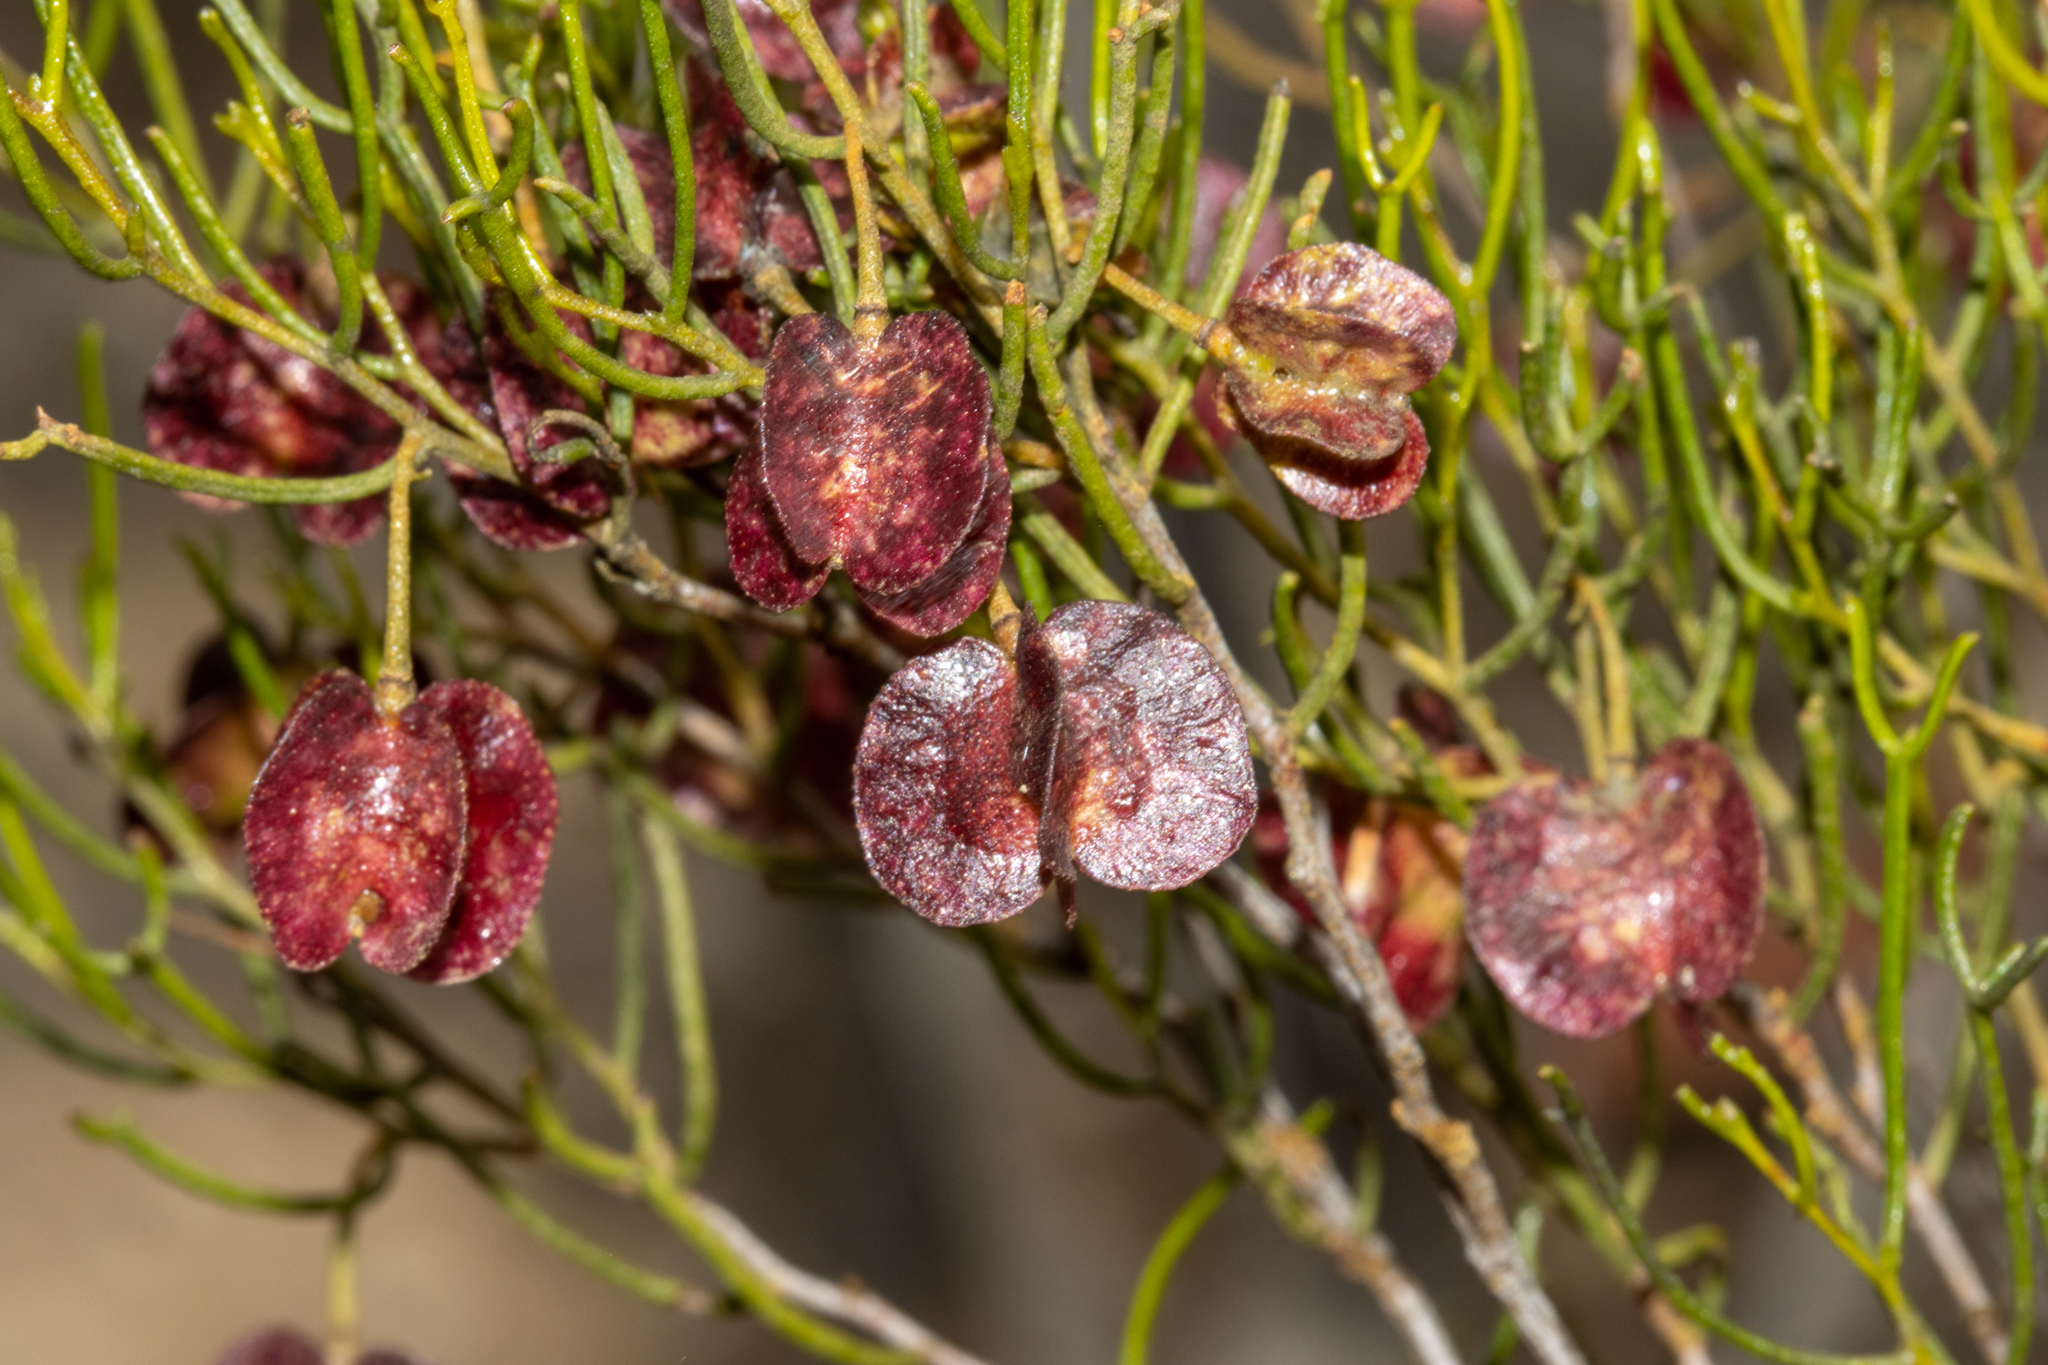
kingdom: Plantae
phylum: Tracheophyta
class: Magnoliopsida
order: Sapindales
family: Sapindaceae
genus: Dodonaea
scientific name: Dodonaea stenozyga
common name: Desert hopbush
